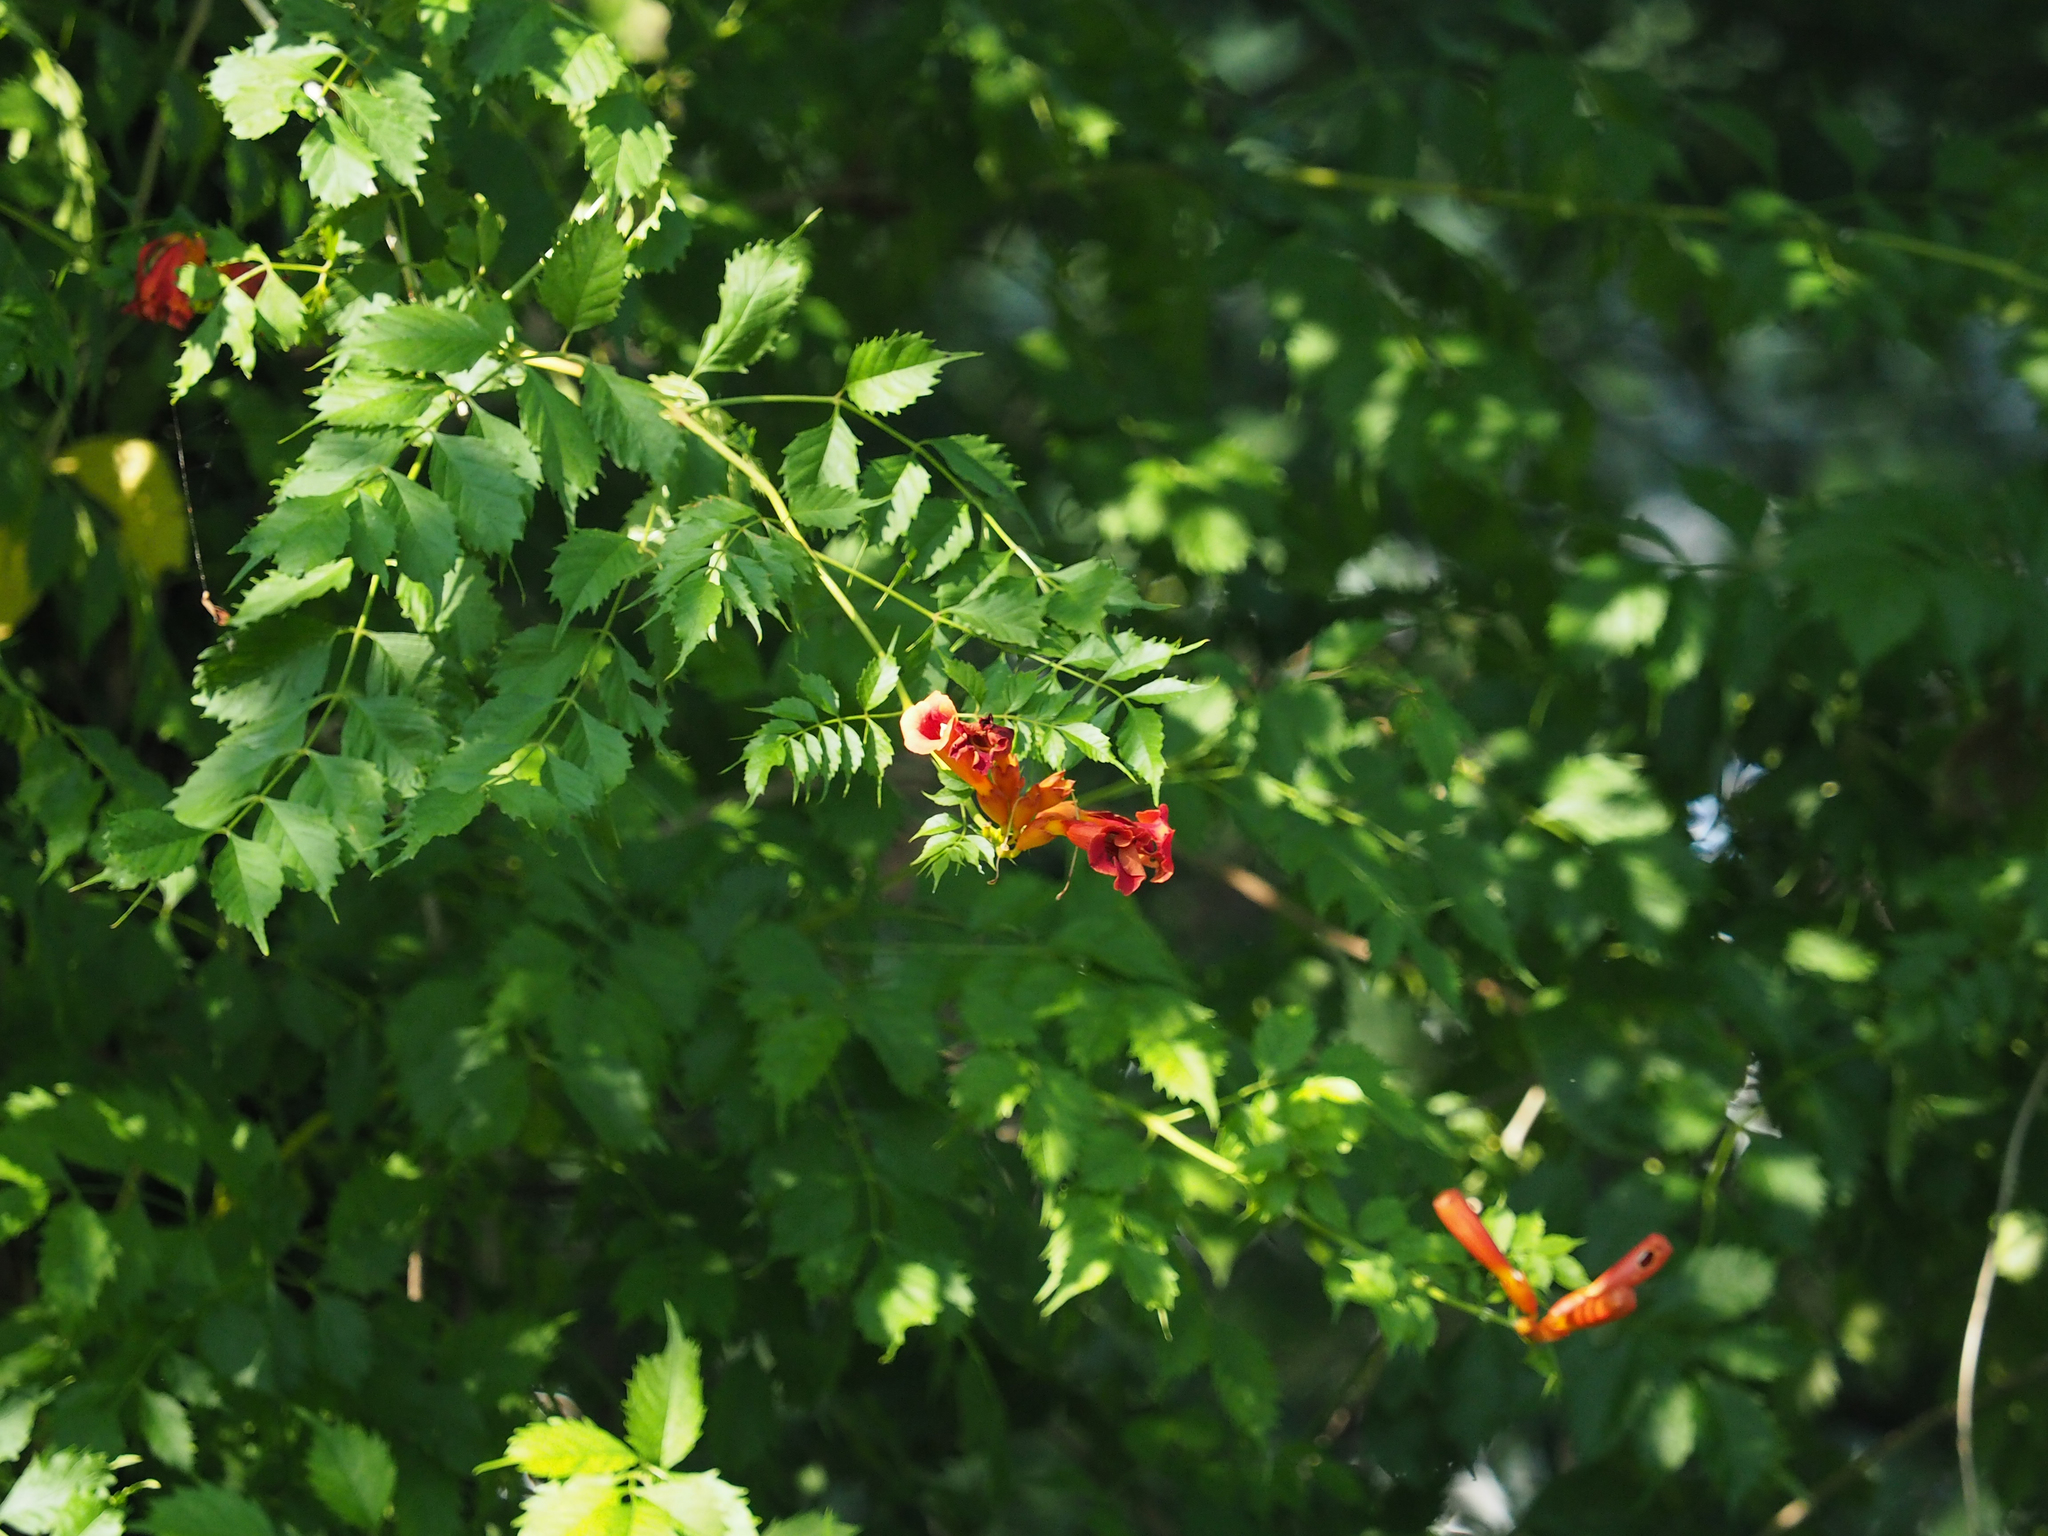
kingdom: Plantae
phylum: Tracheophyta
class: Magnoliopsida
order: Lamiales
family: Bignoniaceae
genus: Campsis
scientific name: Campsis radicans
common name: Trumpet-creeper
